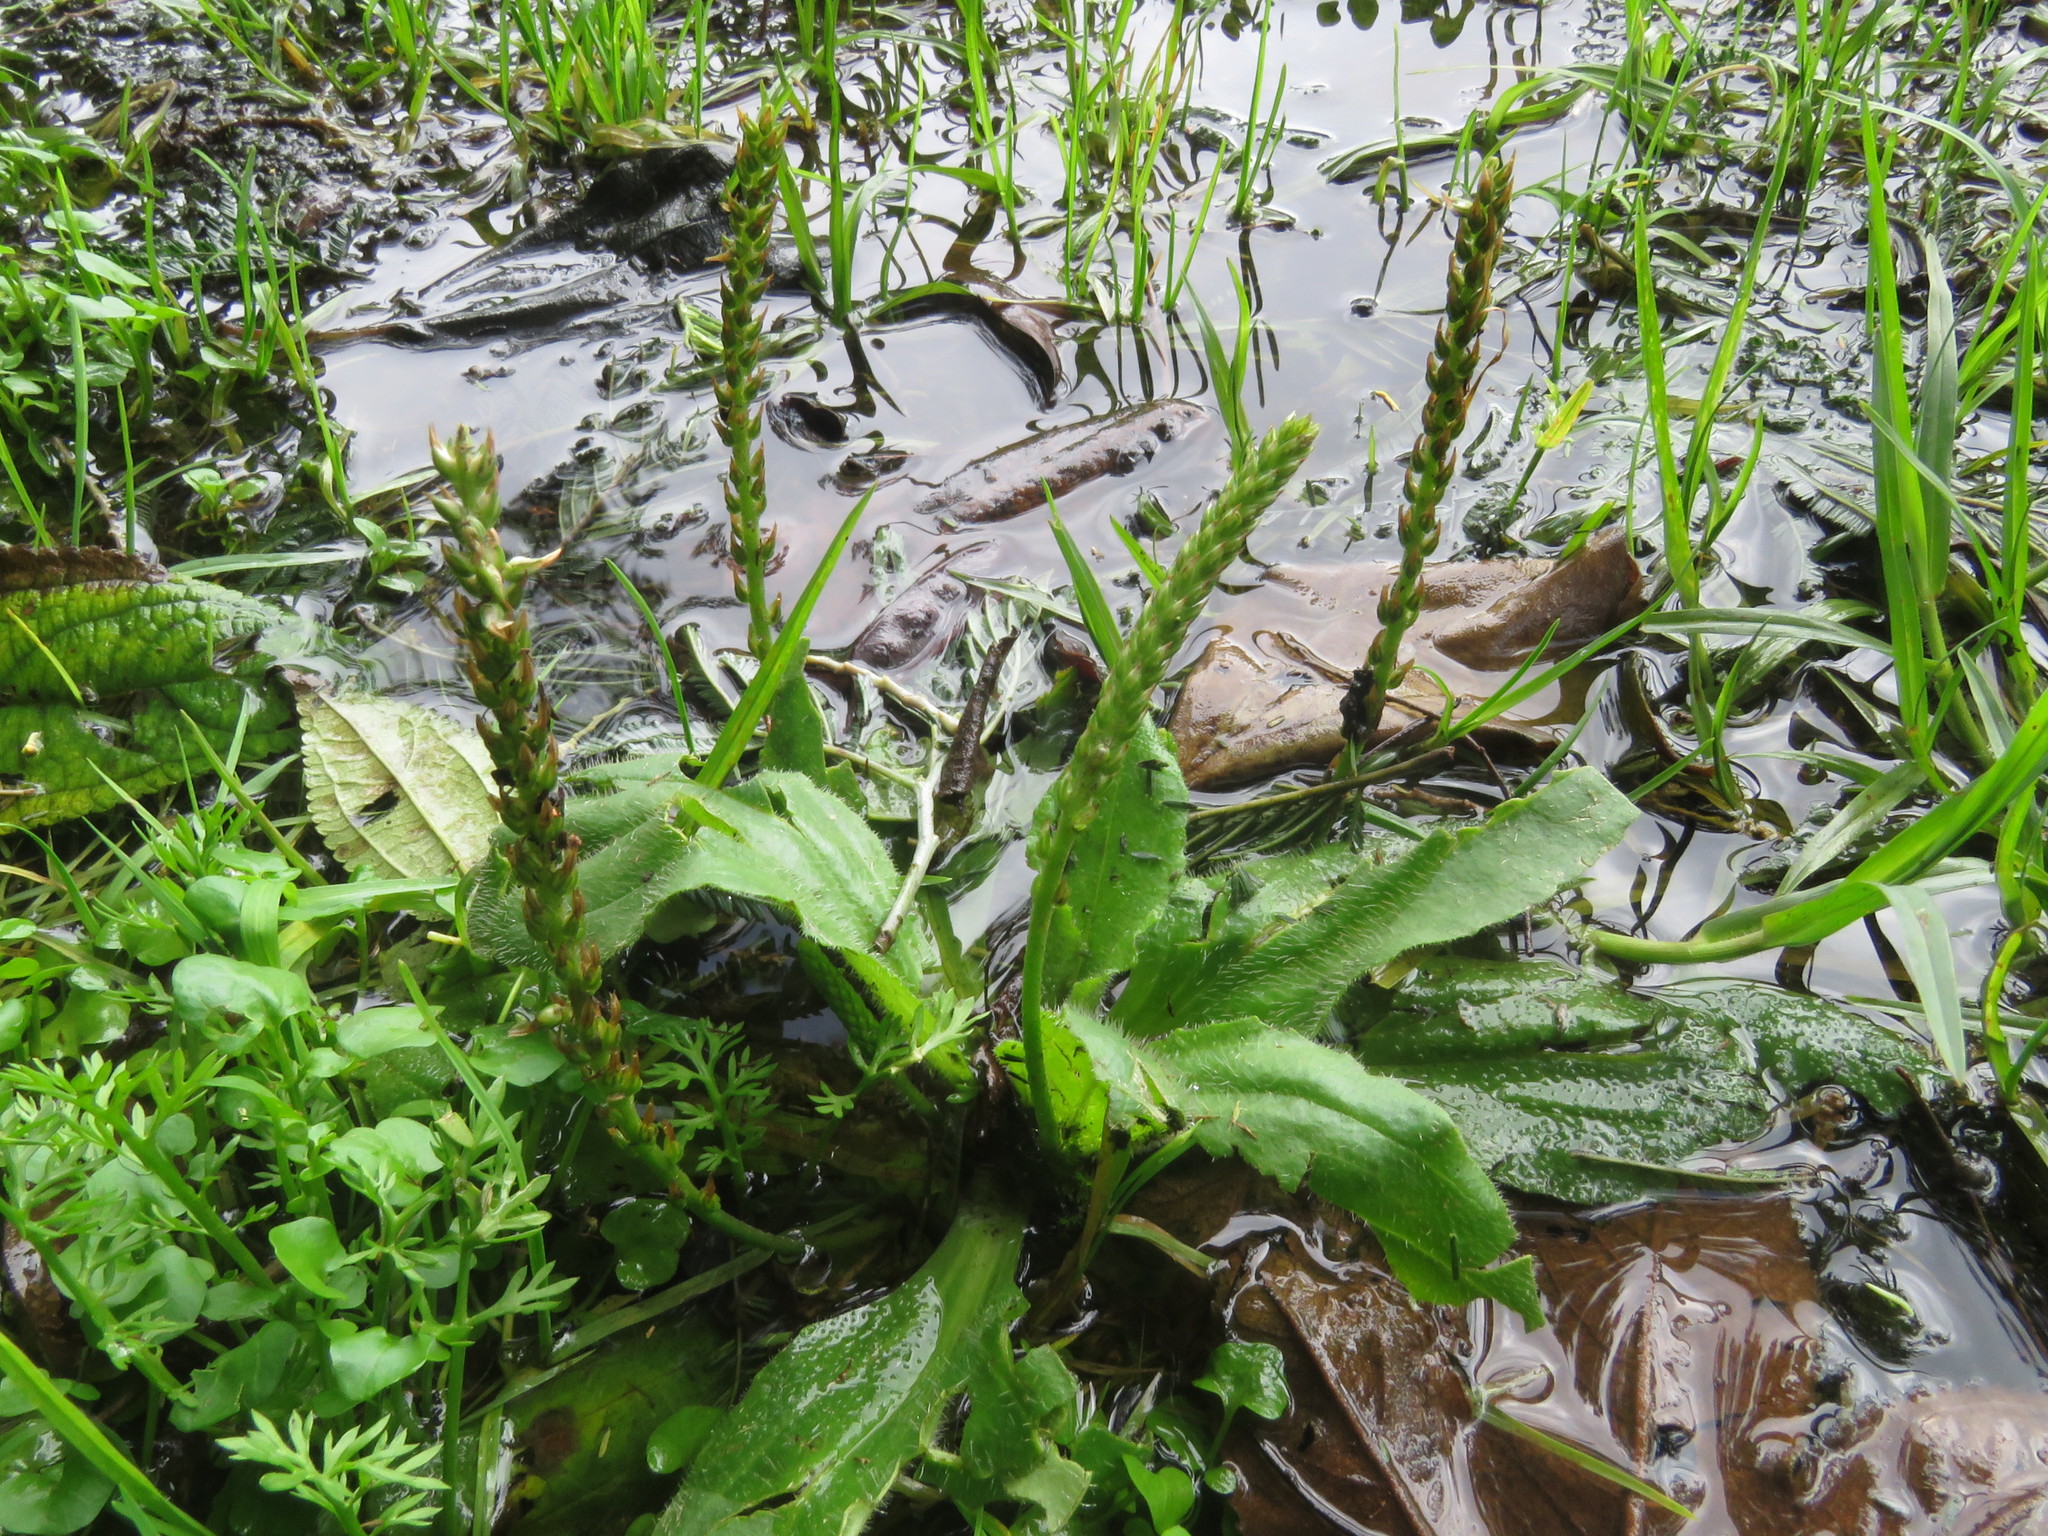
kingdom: Plantae
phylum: Tracheophyta
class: Magnoliopsida
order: Lamiales
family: Plantaginaceae
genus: Plantago
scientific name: Plantago major
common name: Common plantain
